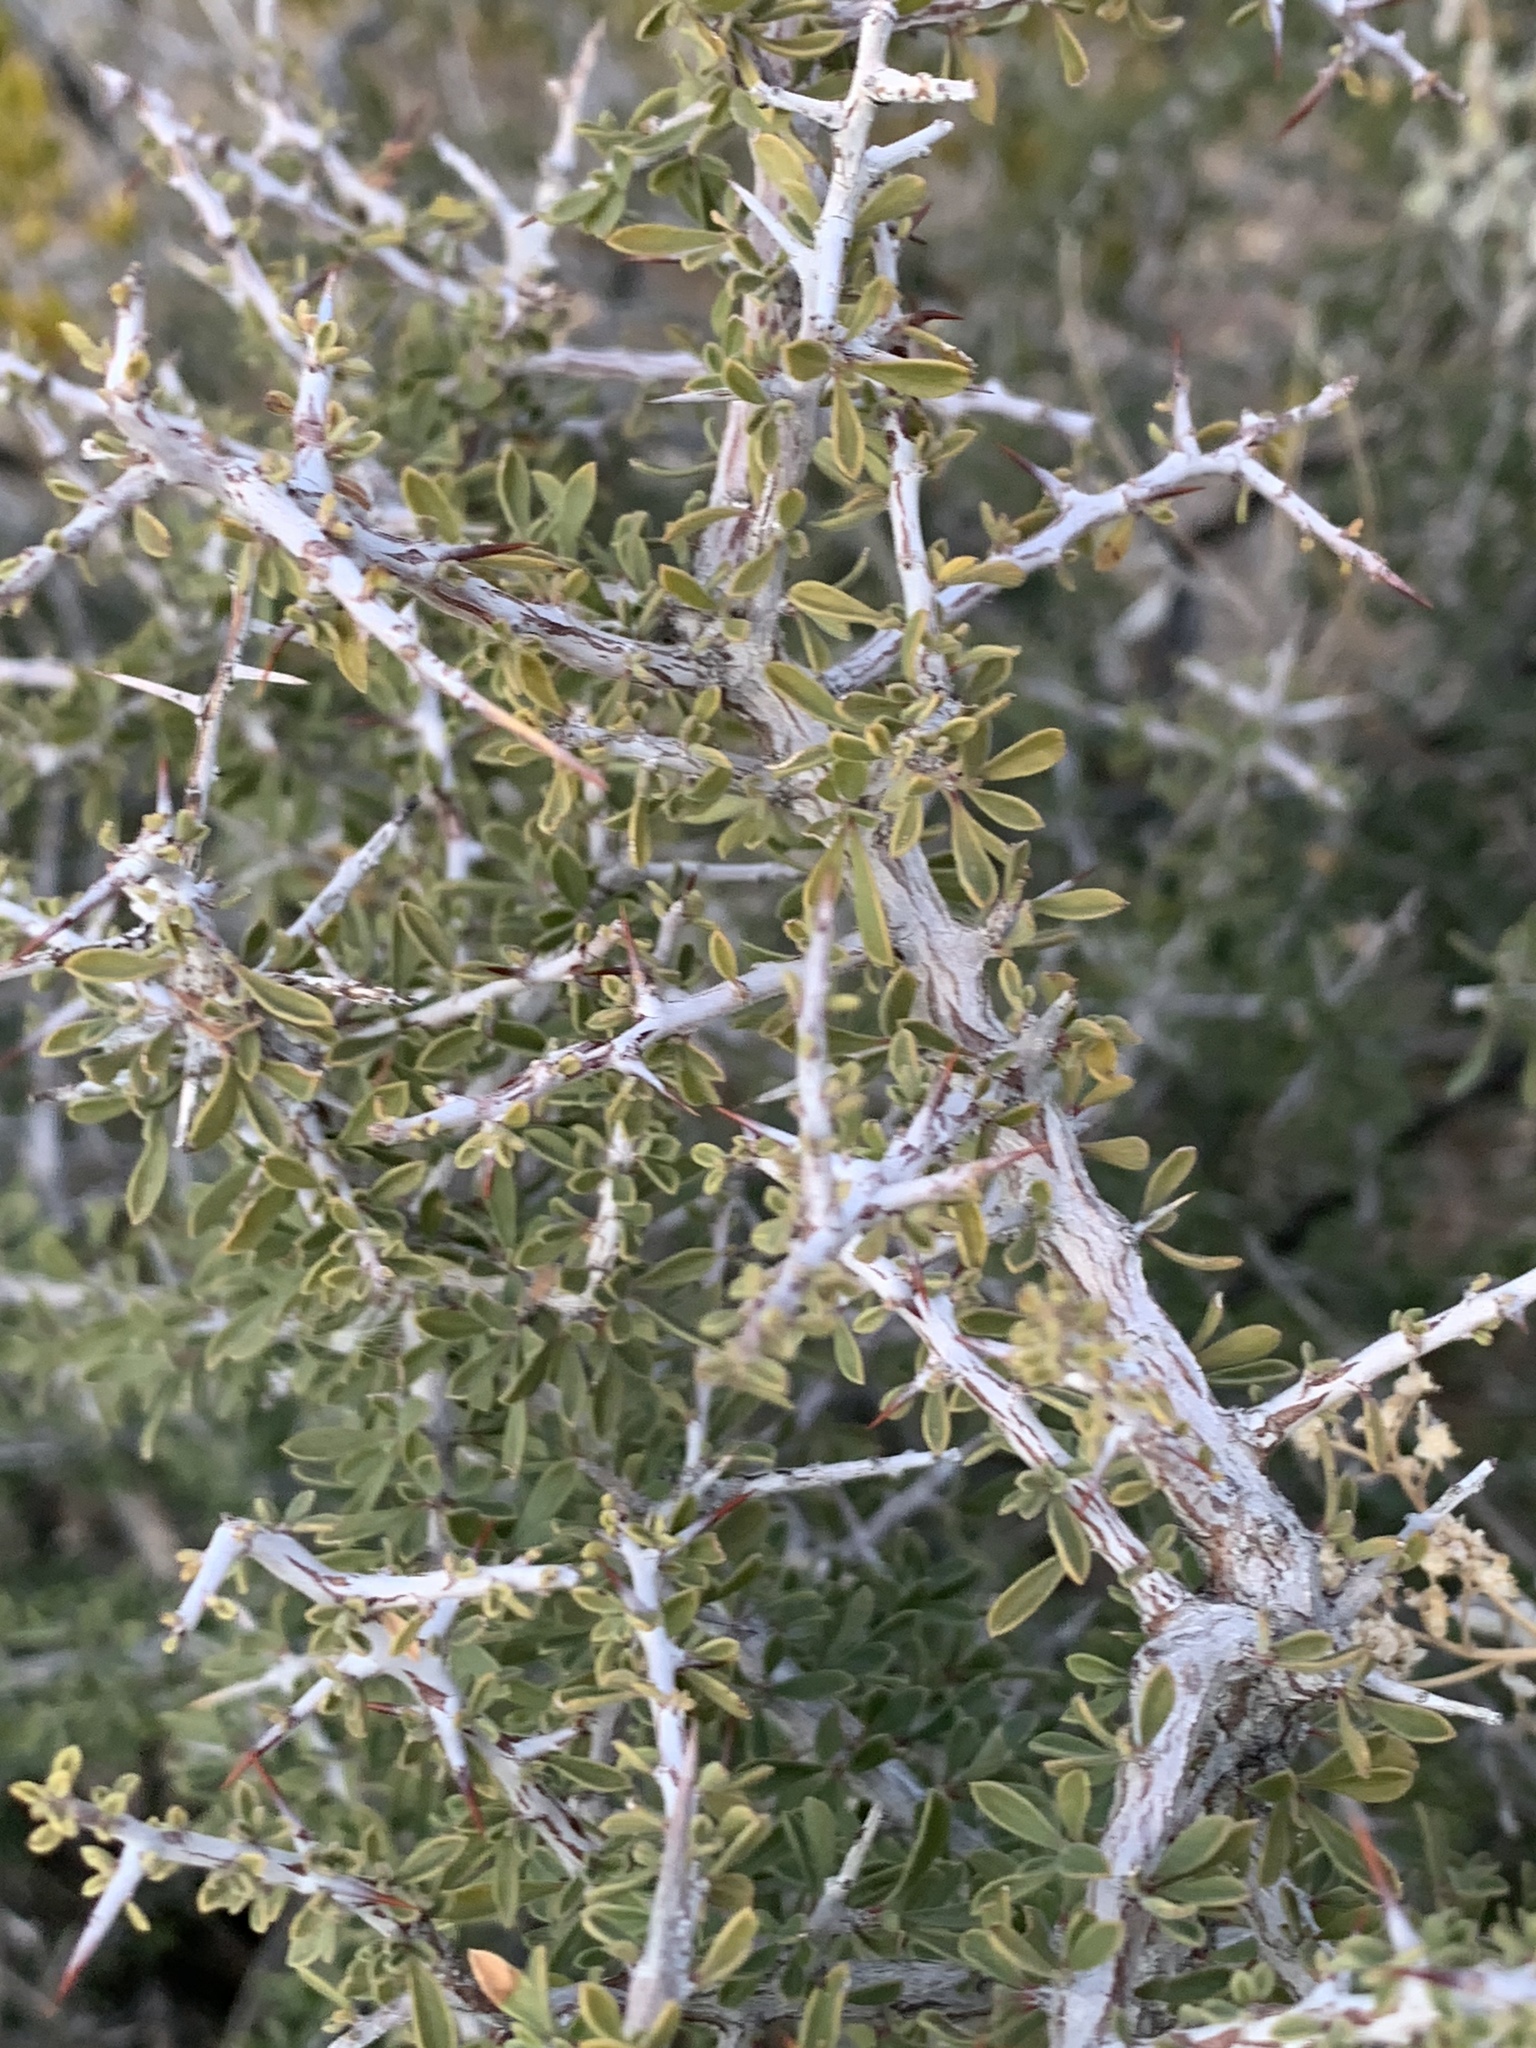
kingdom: Plantae
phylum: Tracheophyta
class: Magnoliopsida
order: Rosales
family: Rhamnaceae
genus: Condalia
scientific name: Condalia warnockii
